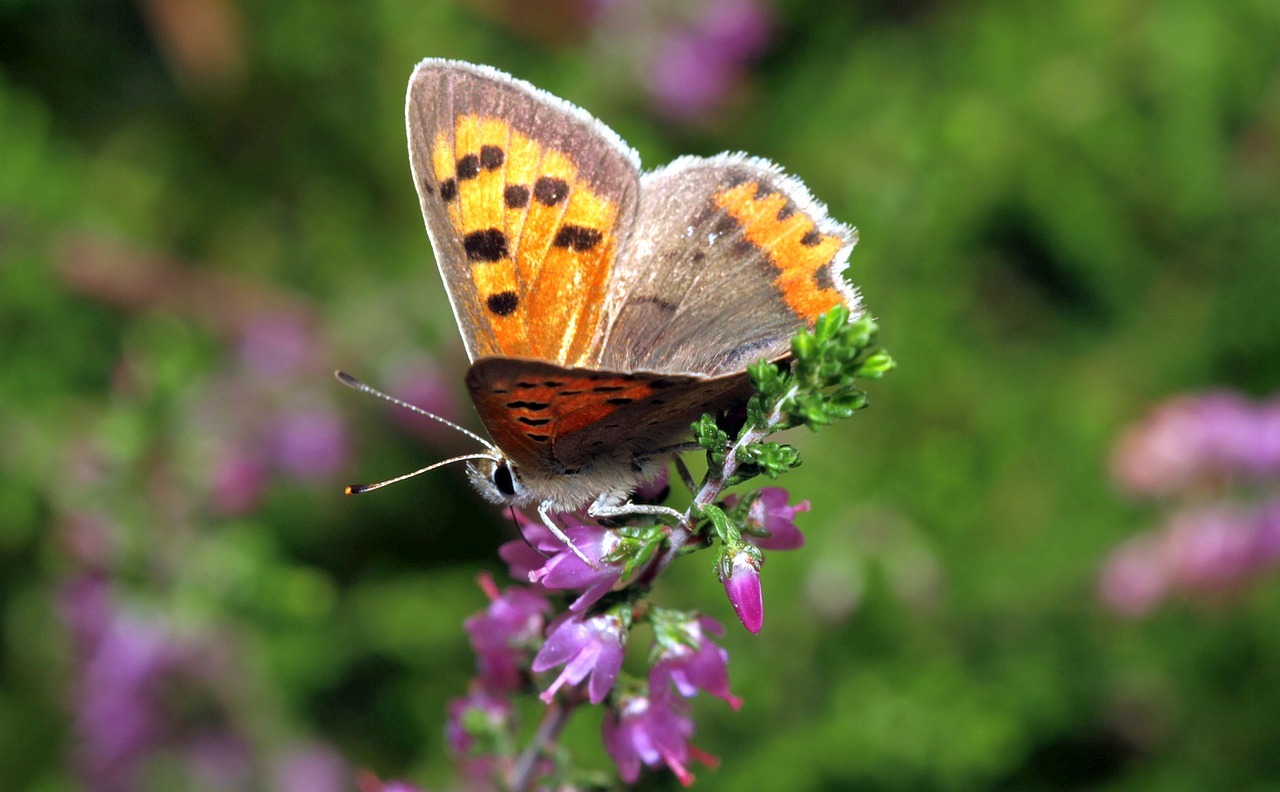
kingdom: Animalia
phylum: Arthropoda
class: Insecta
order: Lepidoptera
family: Lycaenidae
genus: Lycaena
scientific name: Lycaena phlaeas
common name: Small copper
